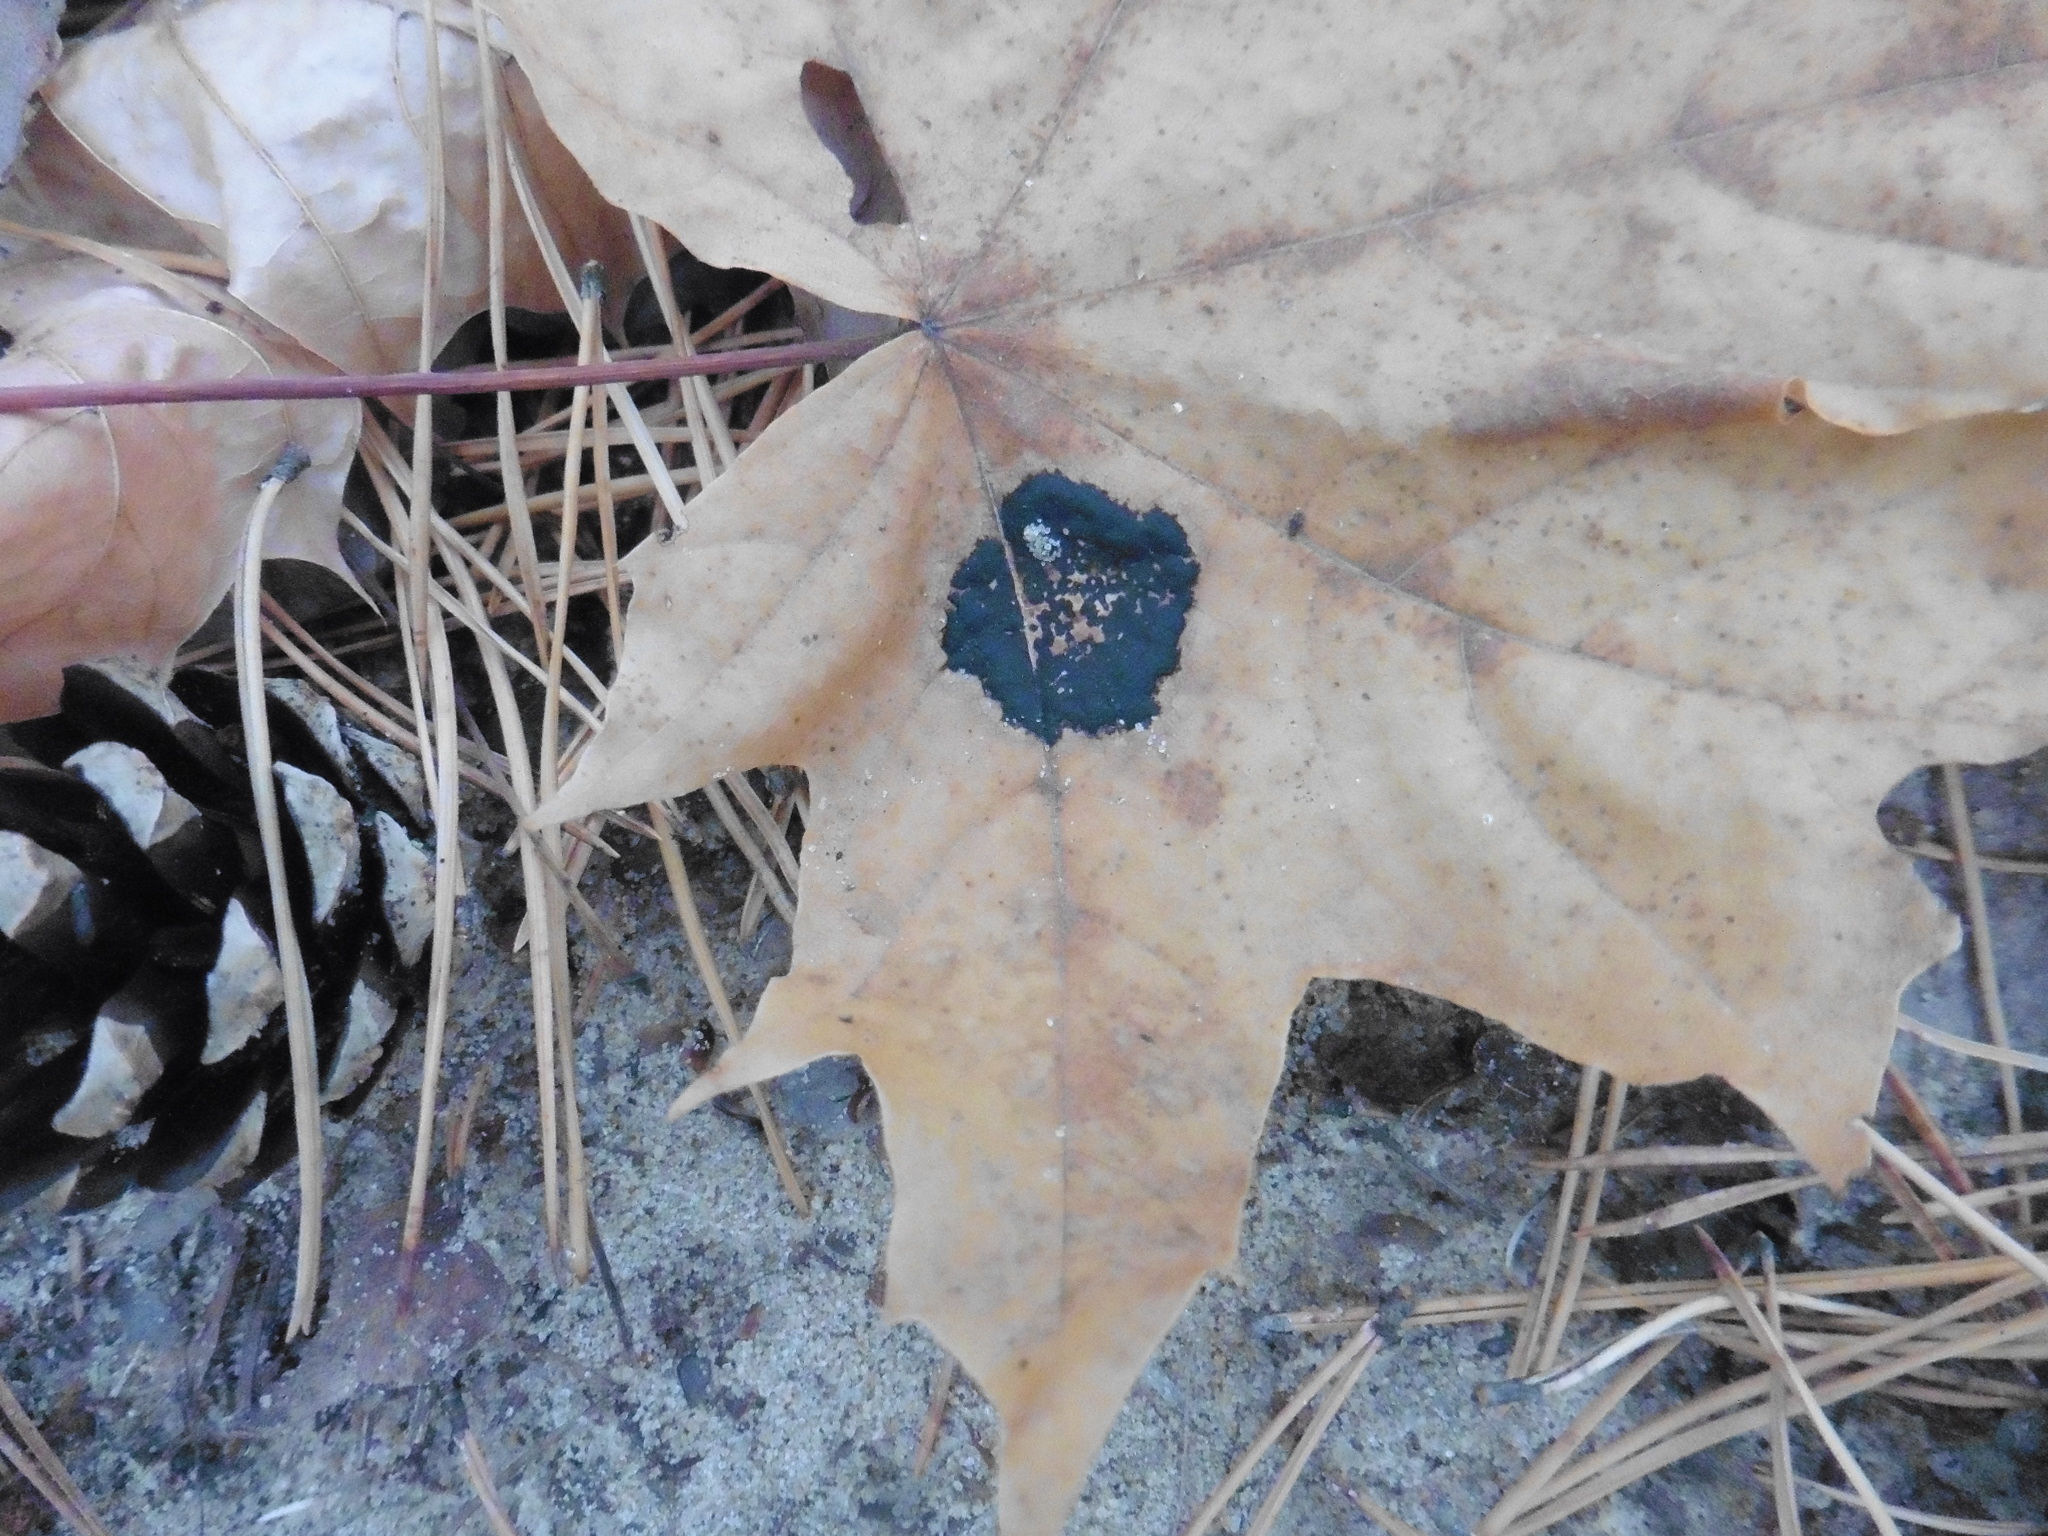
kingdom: Fungi
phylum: Ascomycota
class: Leotiomycetes
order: Rhytismatales
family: Rhytismataceae
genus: Rhytisma
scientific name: Rhytisma acerinum
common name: European tar spot
